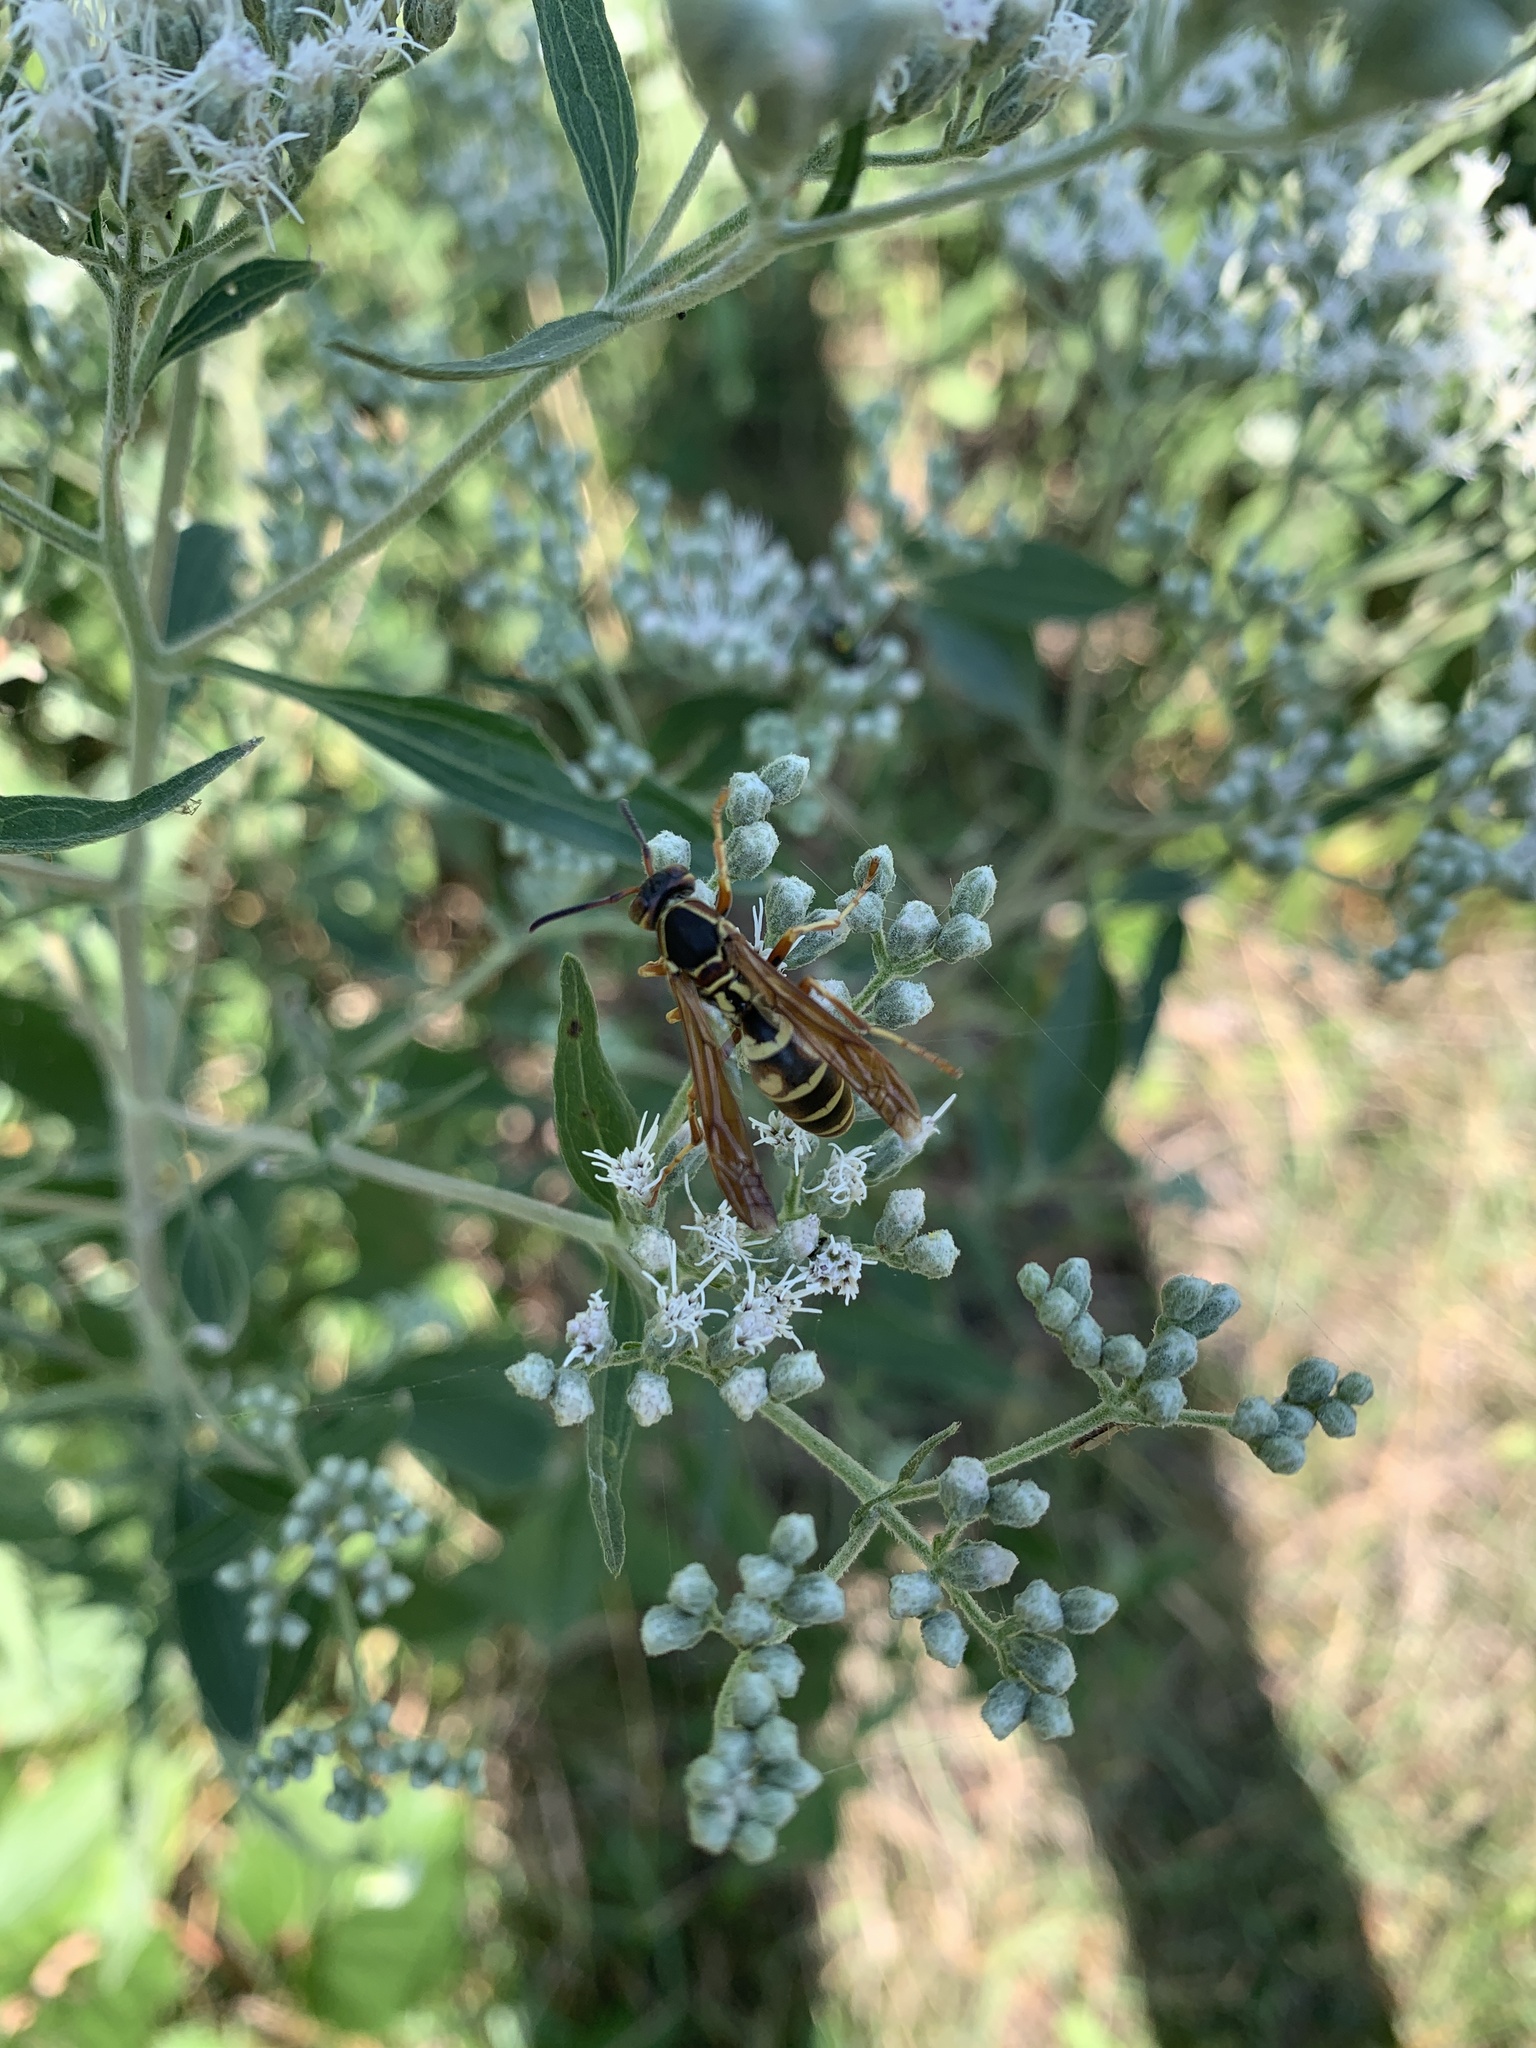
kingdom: Animalia
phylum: Arthropoda
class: Insecta
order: Hymenoptera
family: Eumenidae
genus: Polistes
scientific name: Polistes fuscatus
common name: Dark paper wasp
